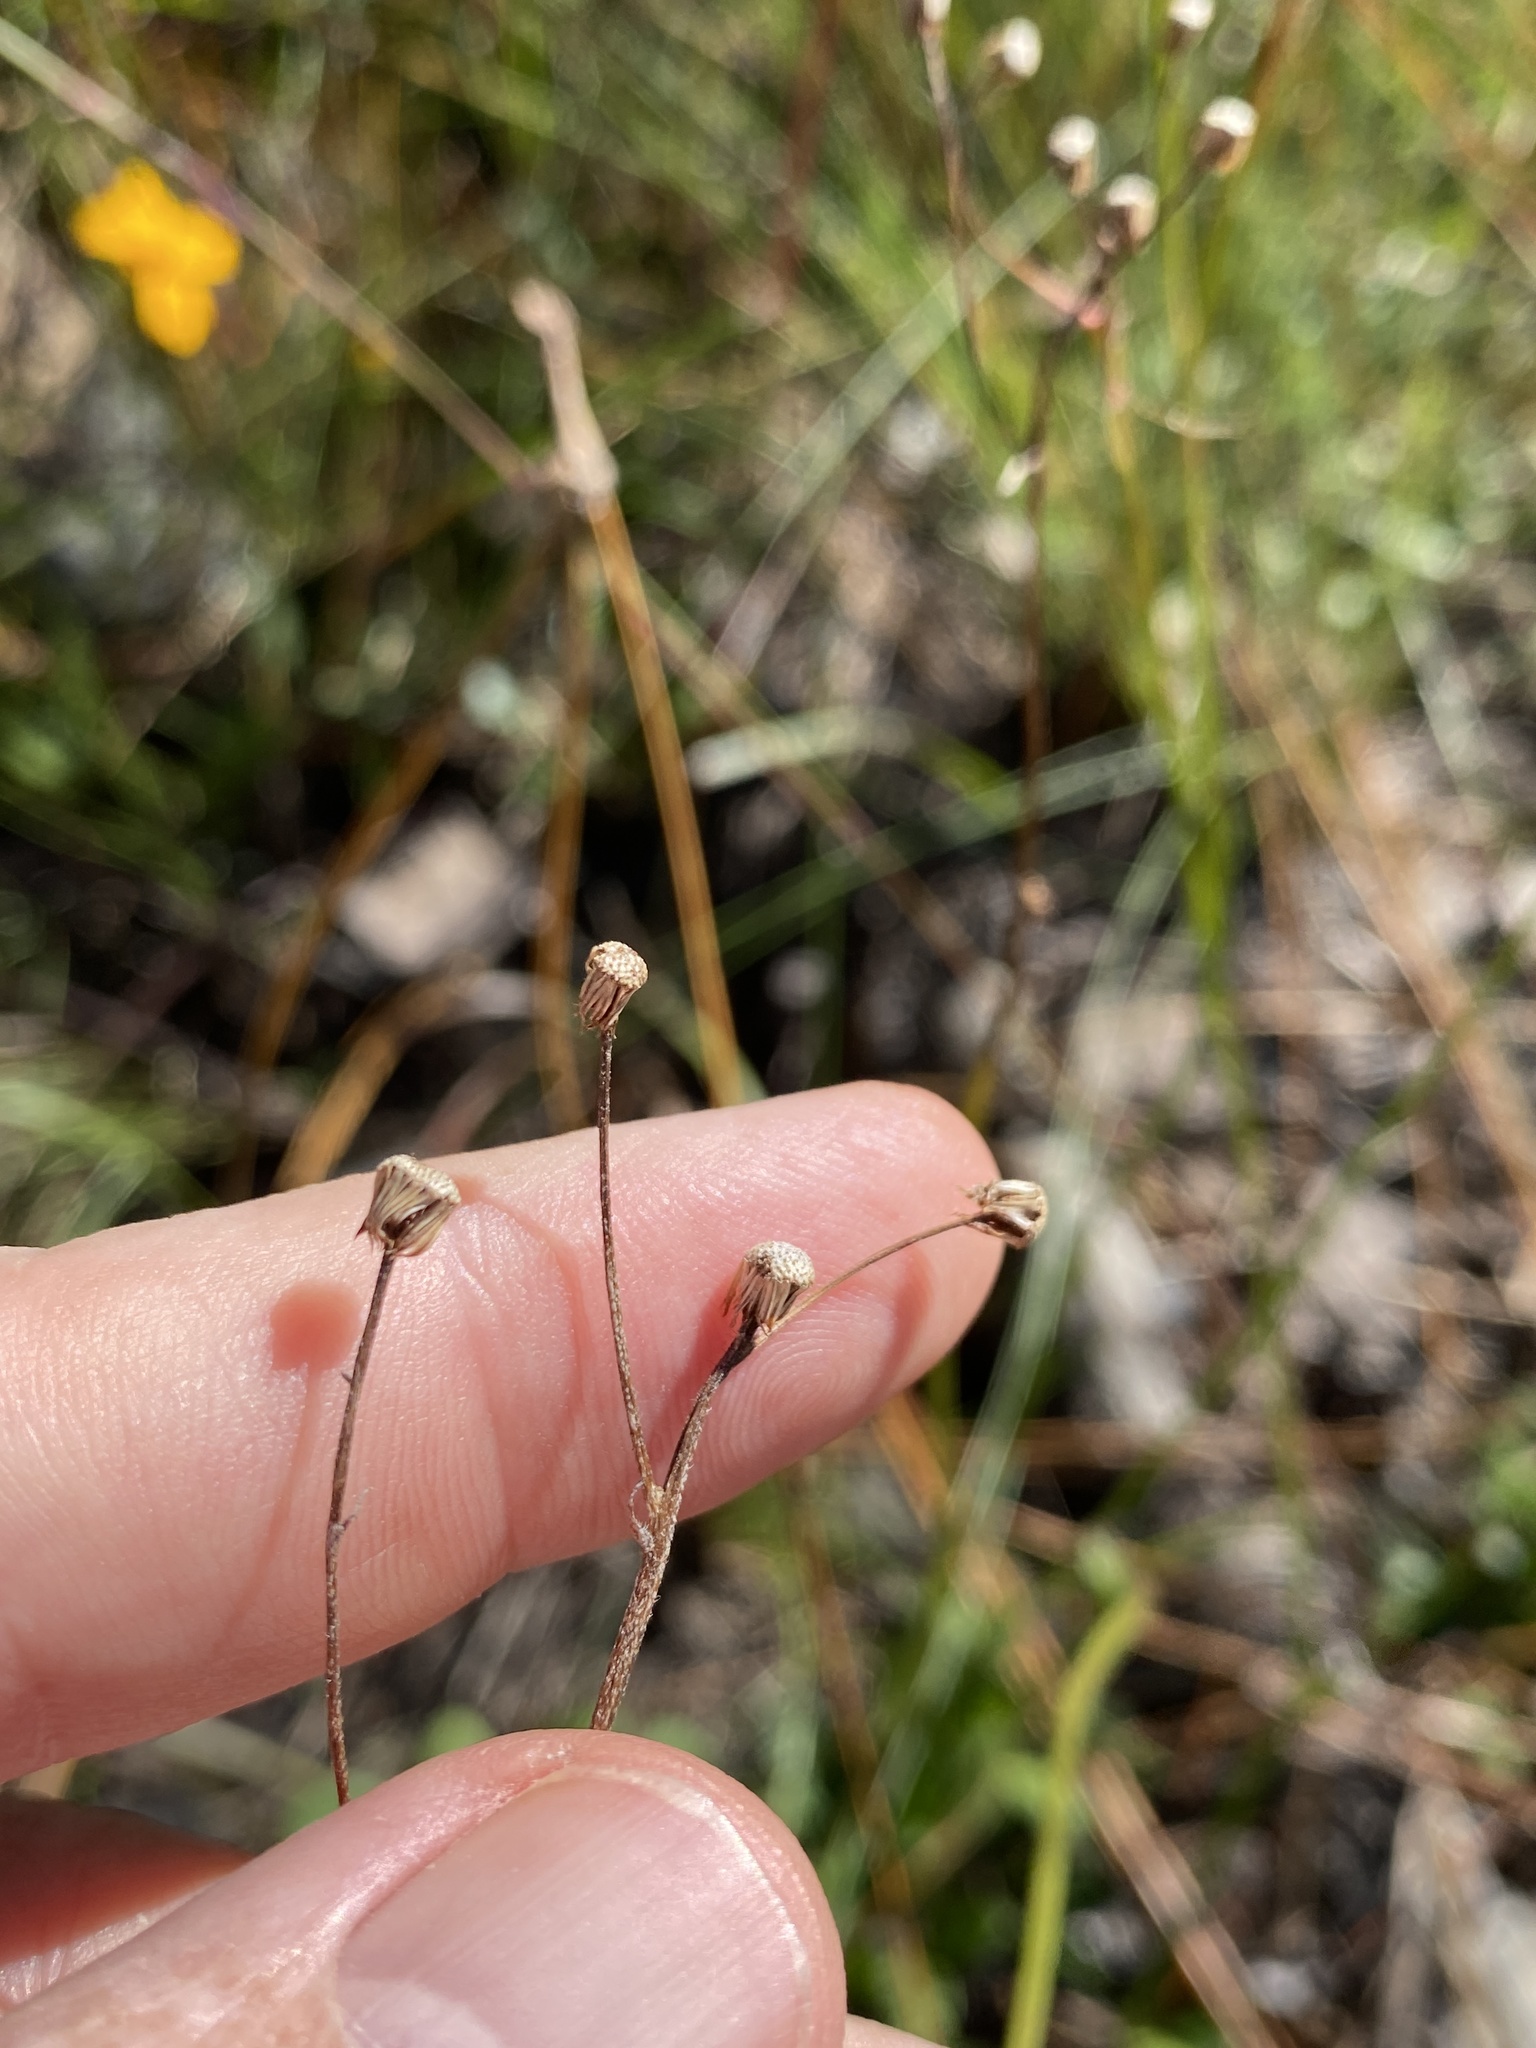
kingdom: Plantae
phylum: Tracheophyta
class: Magnoliopsida
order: Asterales
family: Asteraceae
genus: Erigeron
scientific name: Erigeron vernus
